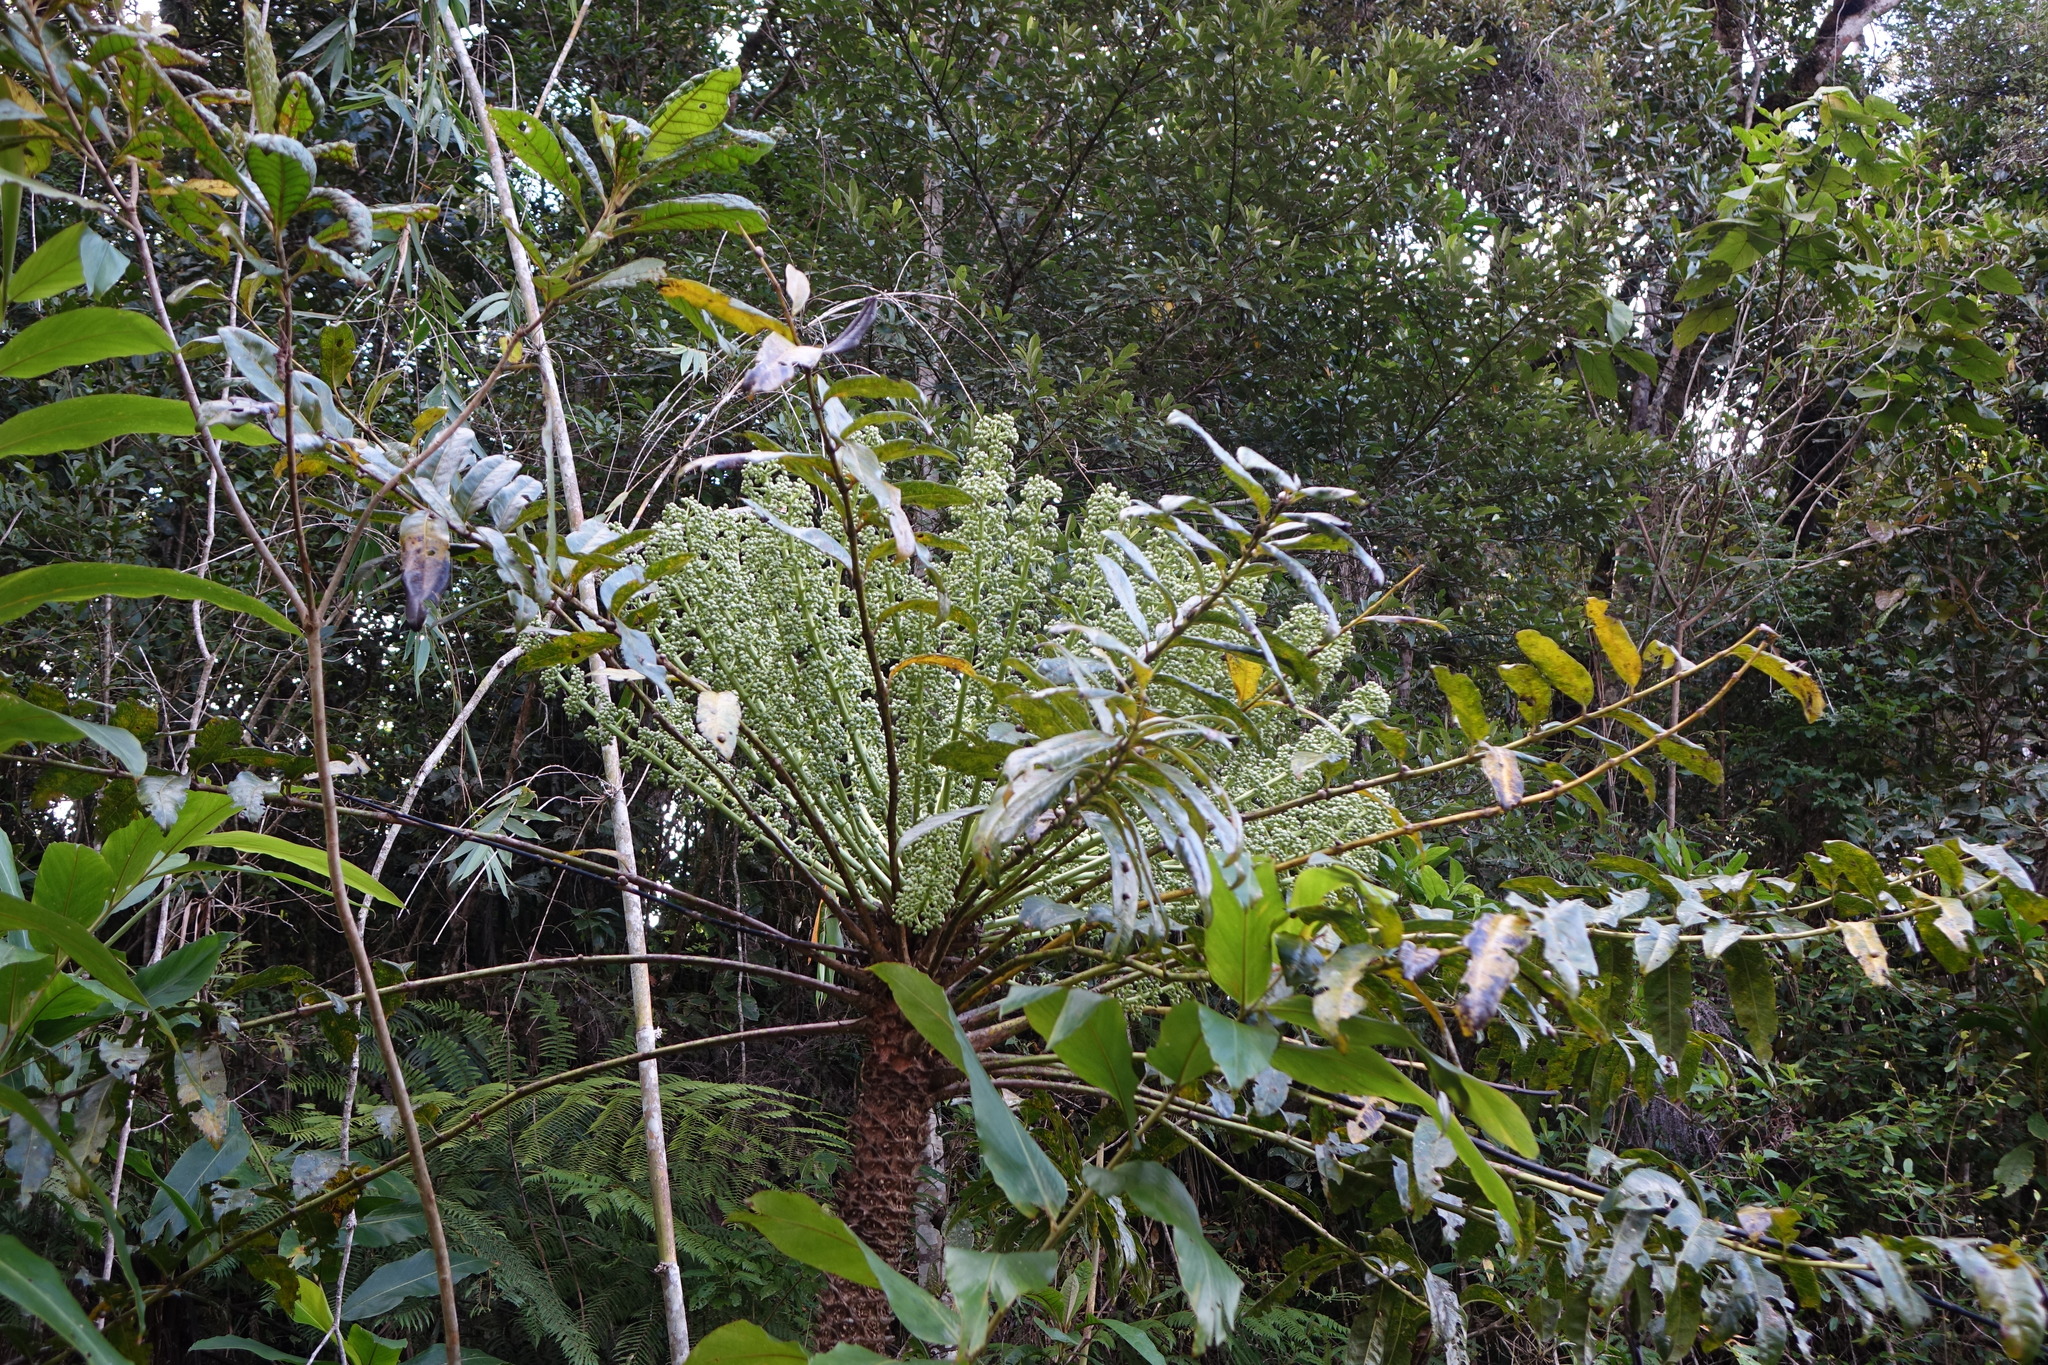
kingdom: Plantae
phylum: Tracheophyta
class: Magnoliopsida
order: Apiales
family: Araliaceae
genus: Polyscias
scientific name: Polyscias duplicata
